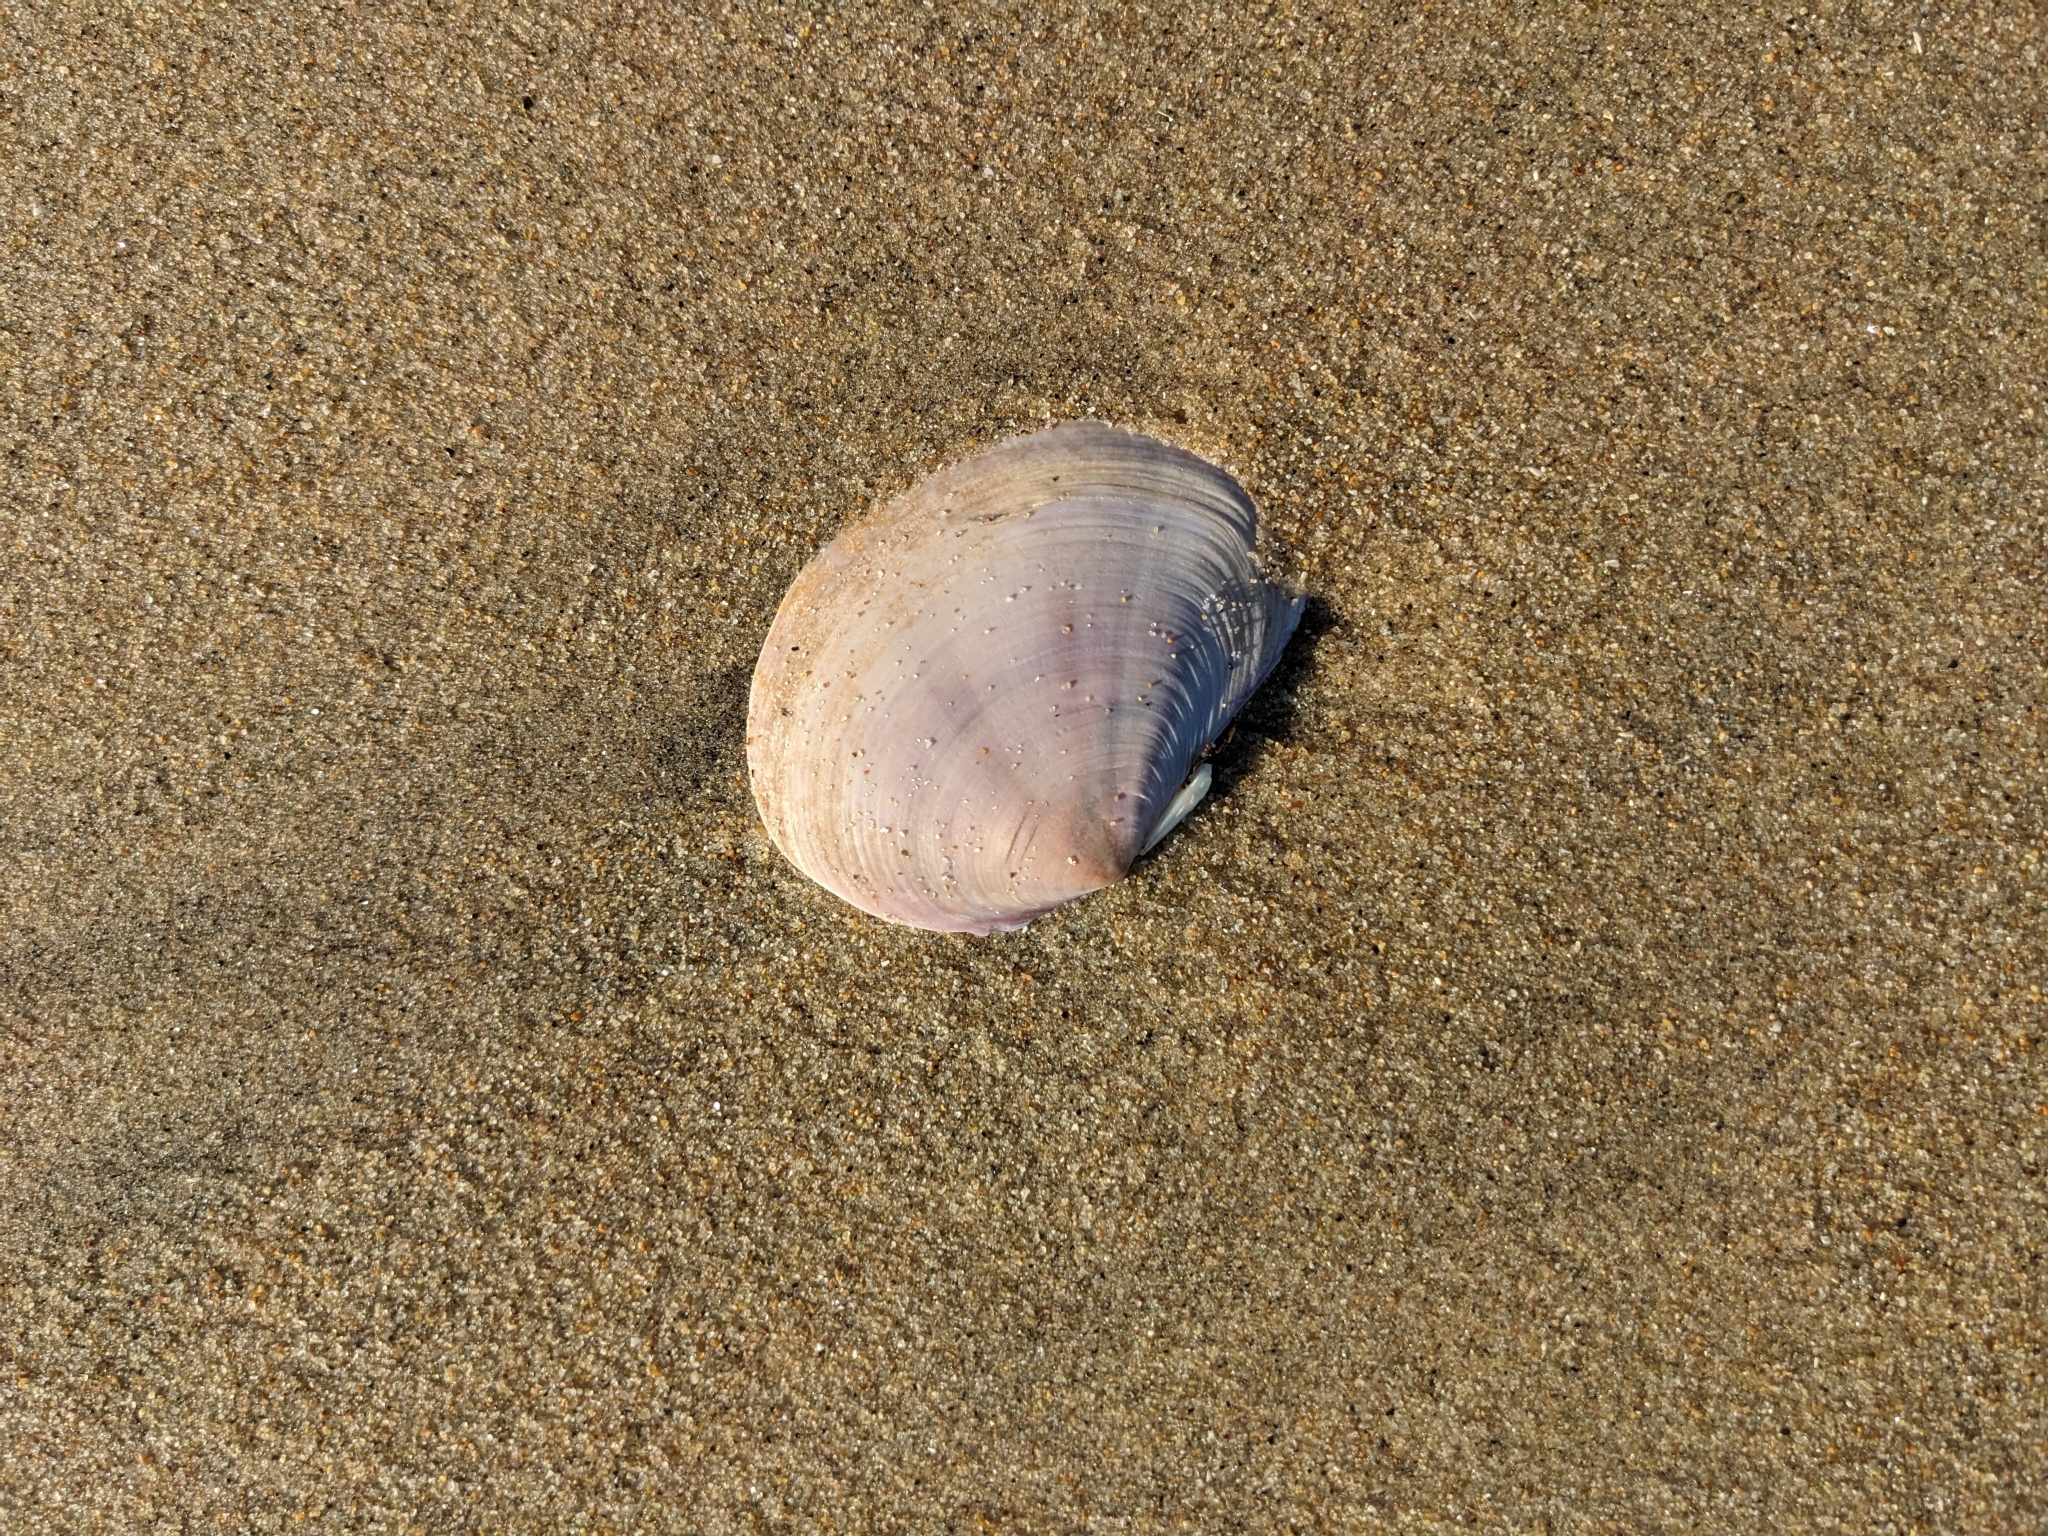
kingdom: Animalia
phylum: Mollusca
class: Bivalvia
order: Cardiida
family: Psammobiidae
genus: Nuttallia
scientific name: Nuttallia nuttallii
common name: California mahogany-clam
